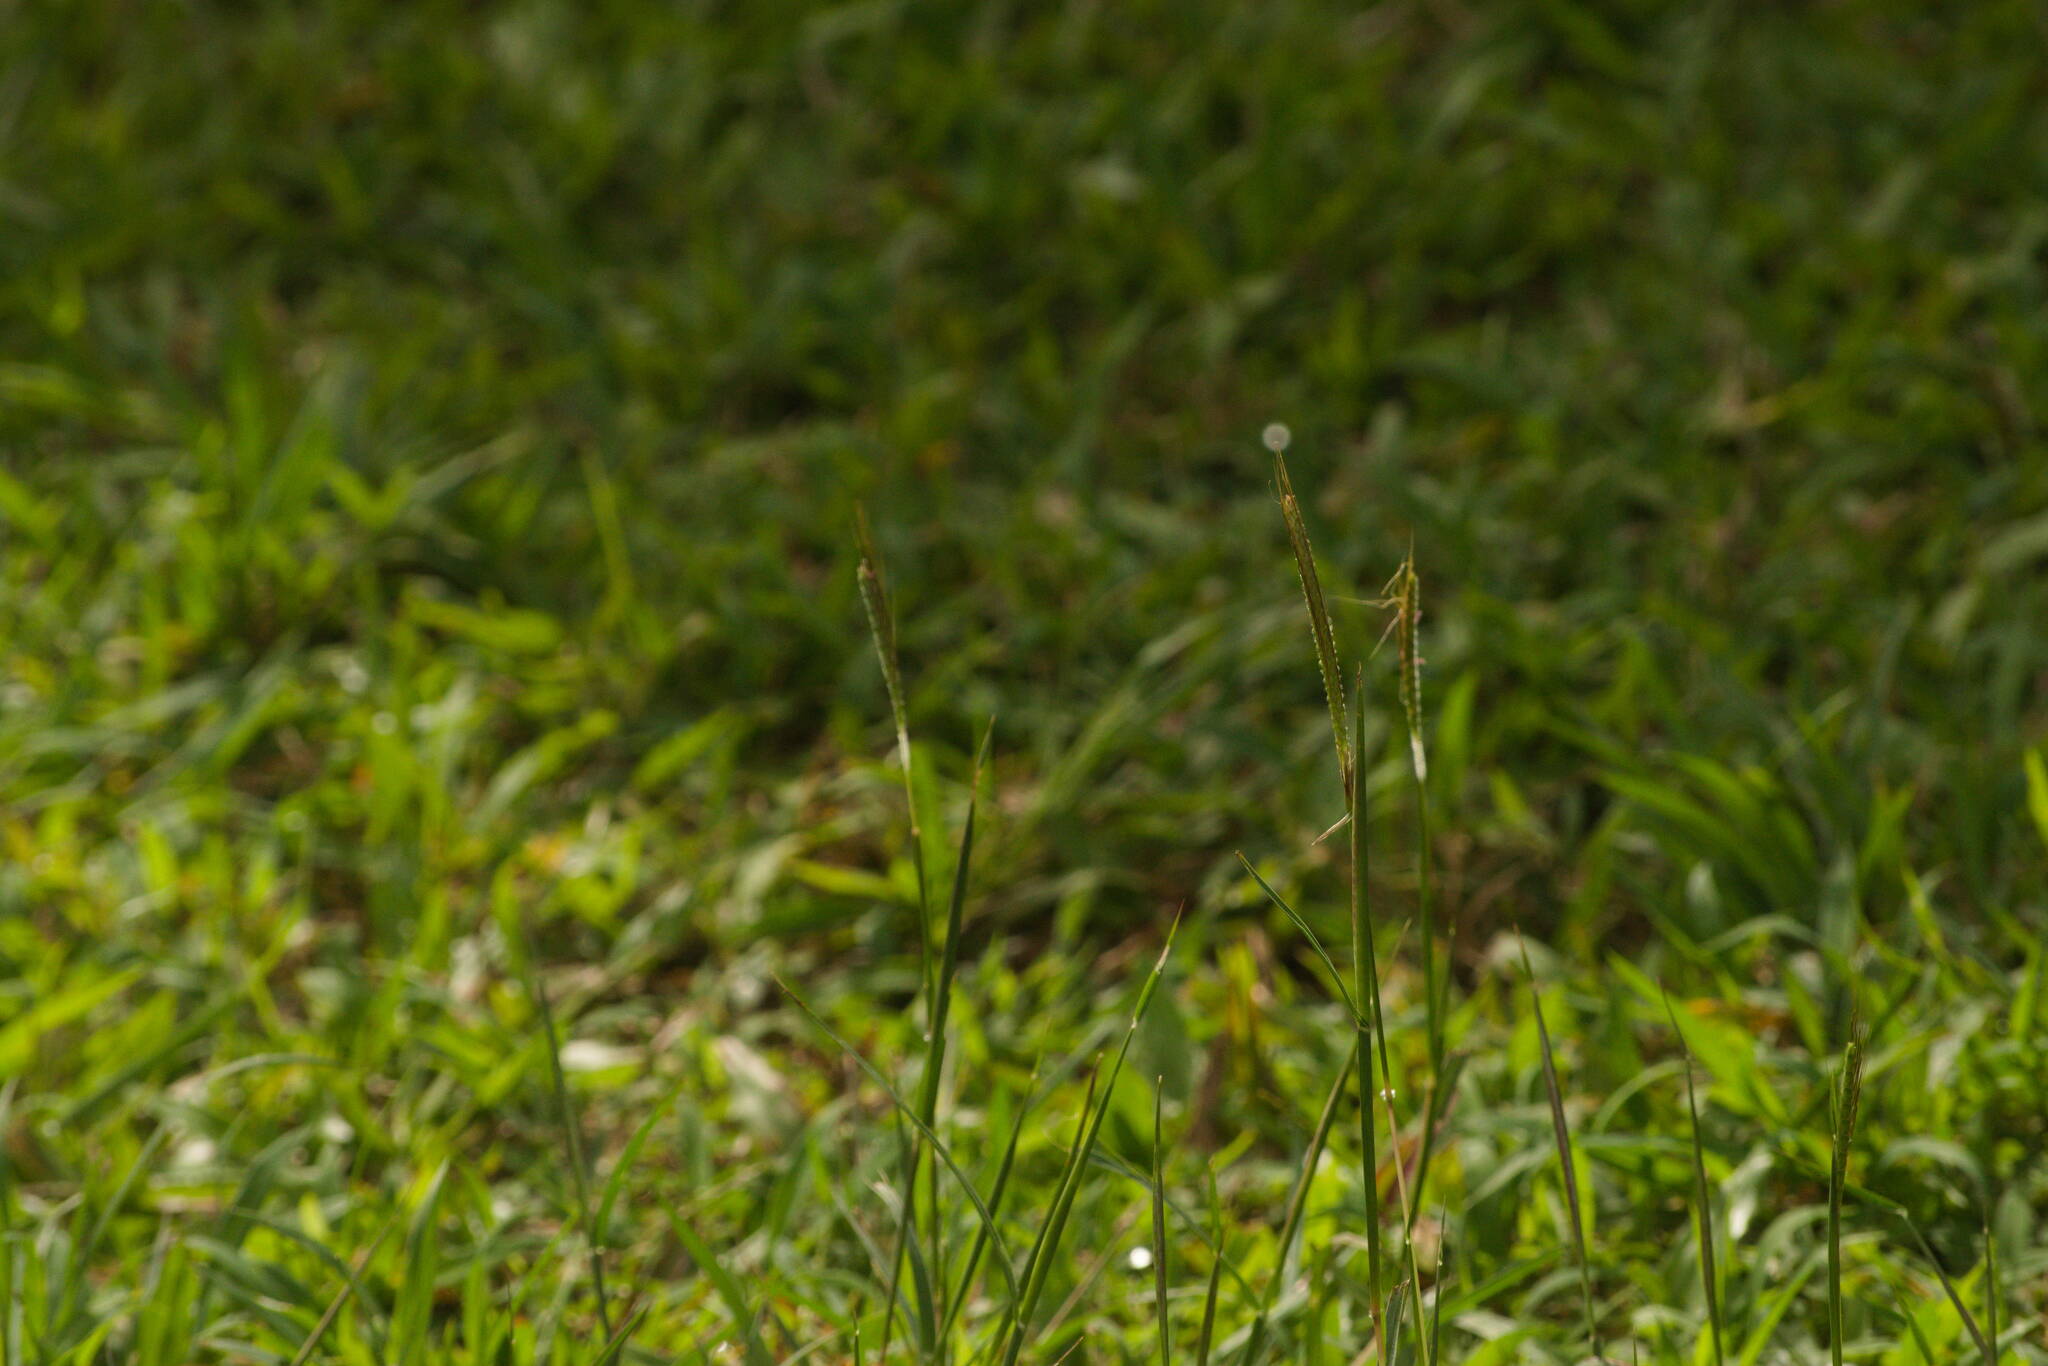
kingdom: Plantae
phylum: Tracheophyta
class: Liliopsida
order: Poales
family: Poaceae
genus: Dichanthium
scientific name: Dichanthium aristatum
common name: Angleton bluestem
